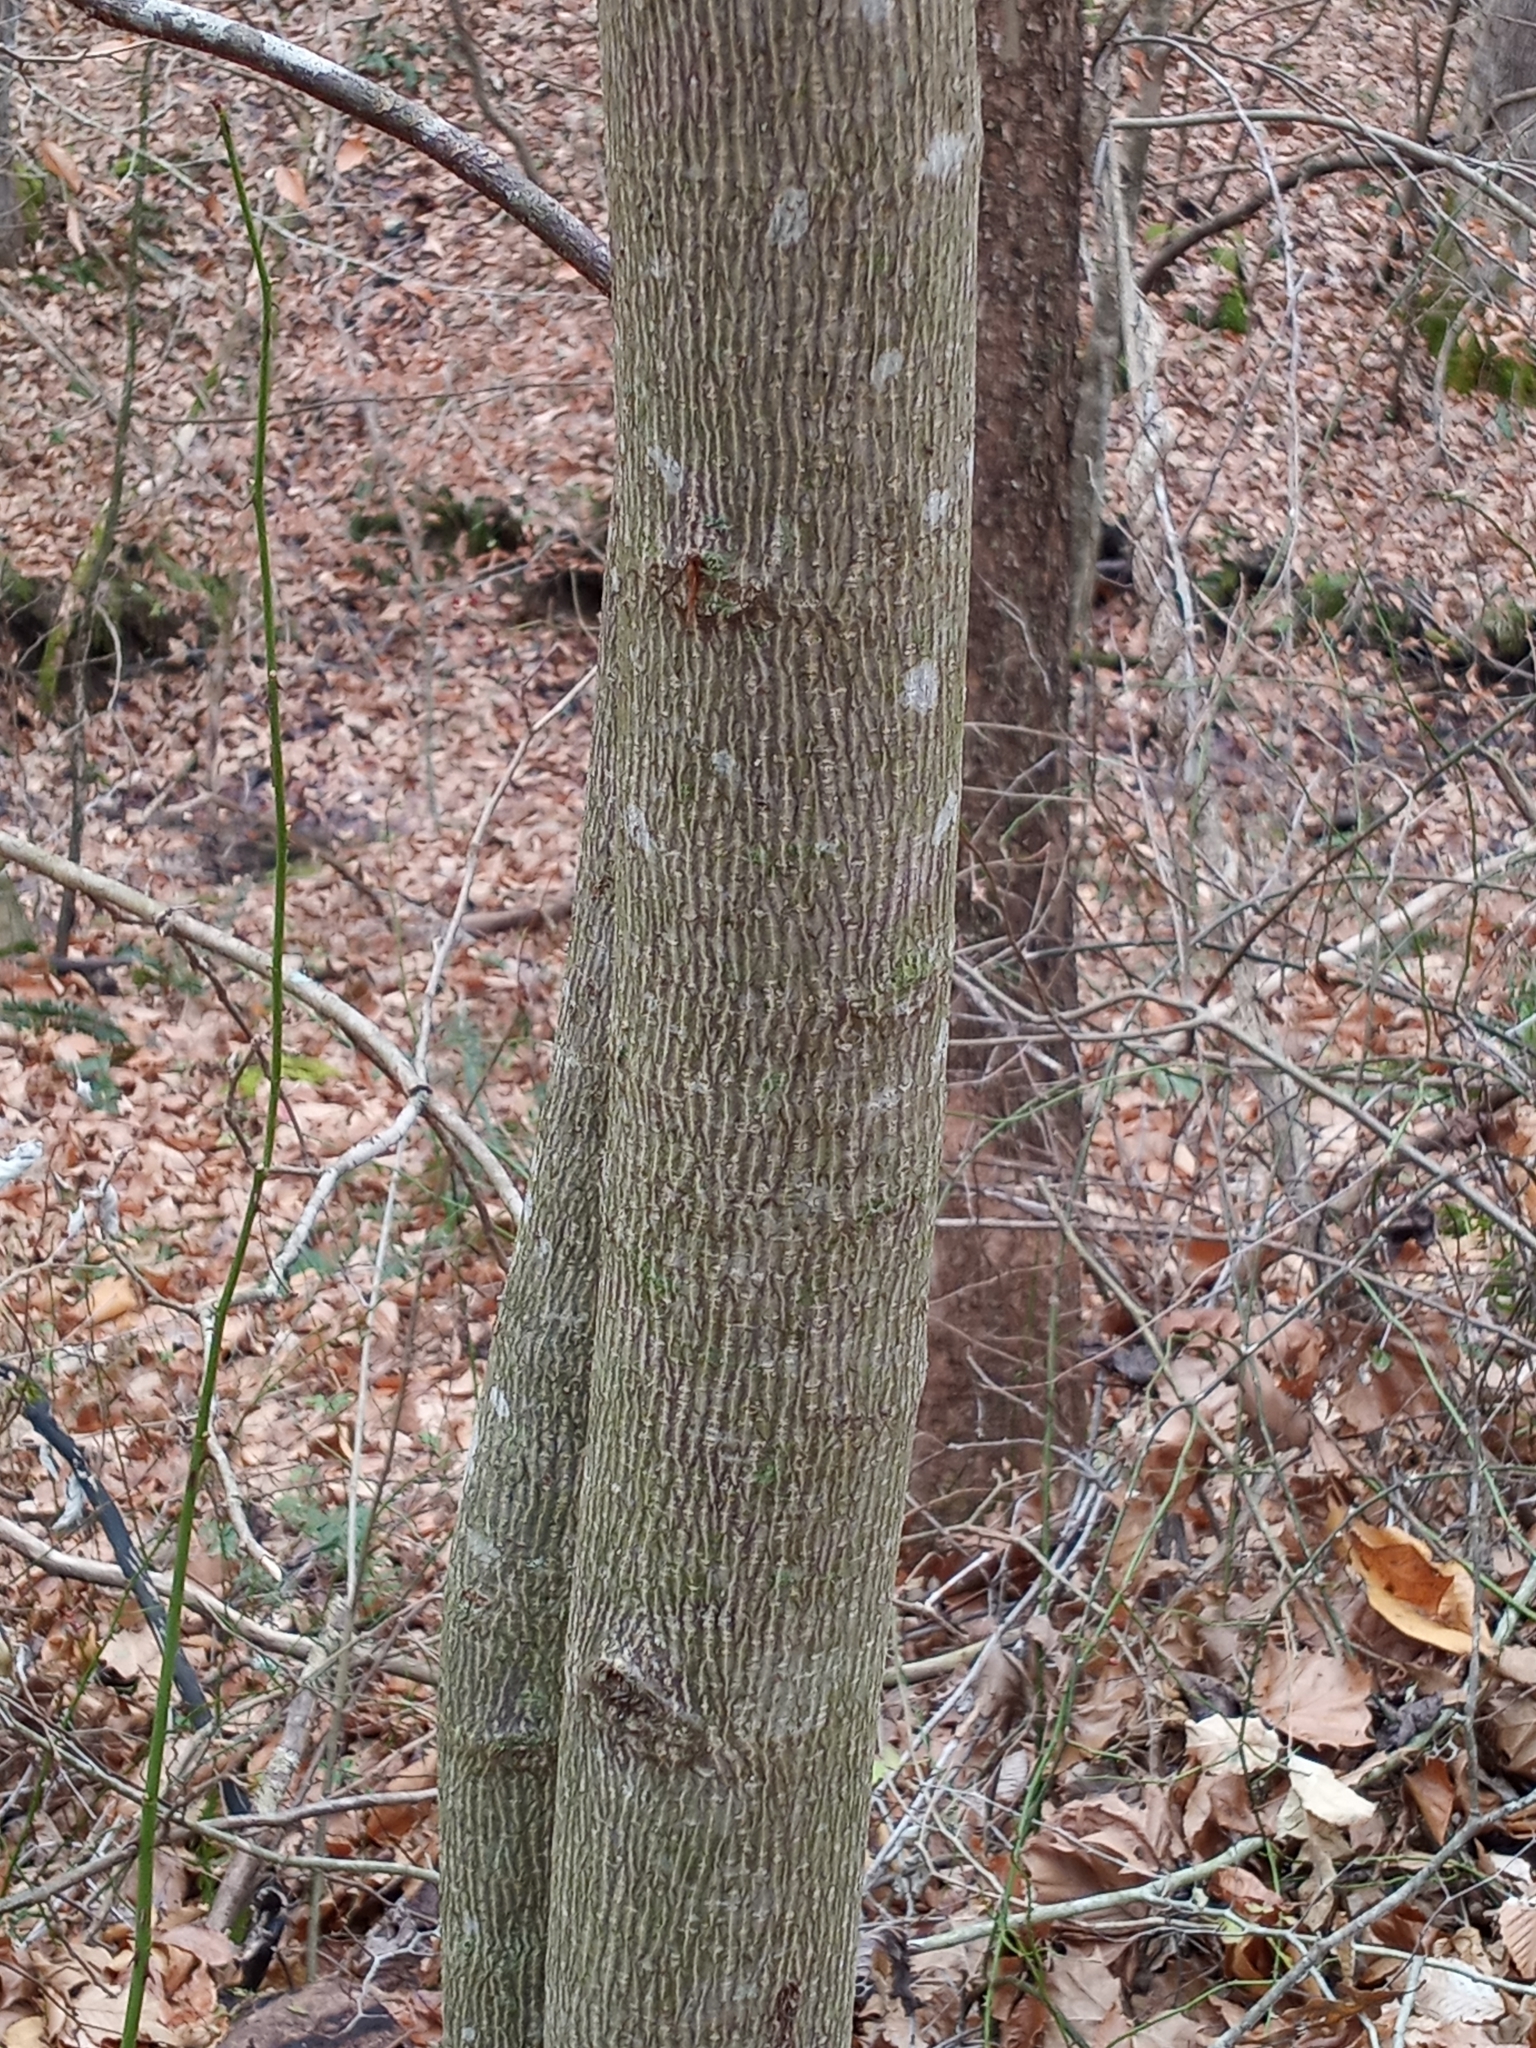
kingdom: Plantae
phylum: Tracheophyta
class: Magnoliopsida
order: Magnoliales
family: Magnoliaceae
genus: Liriodendron
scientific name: Liriodendron tulipifera
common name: Tulip tree
